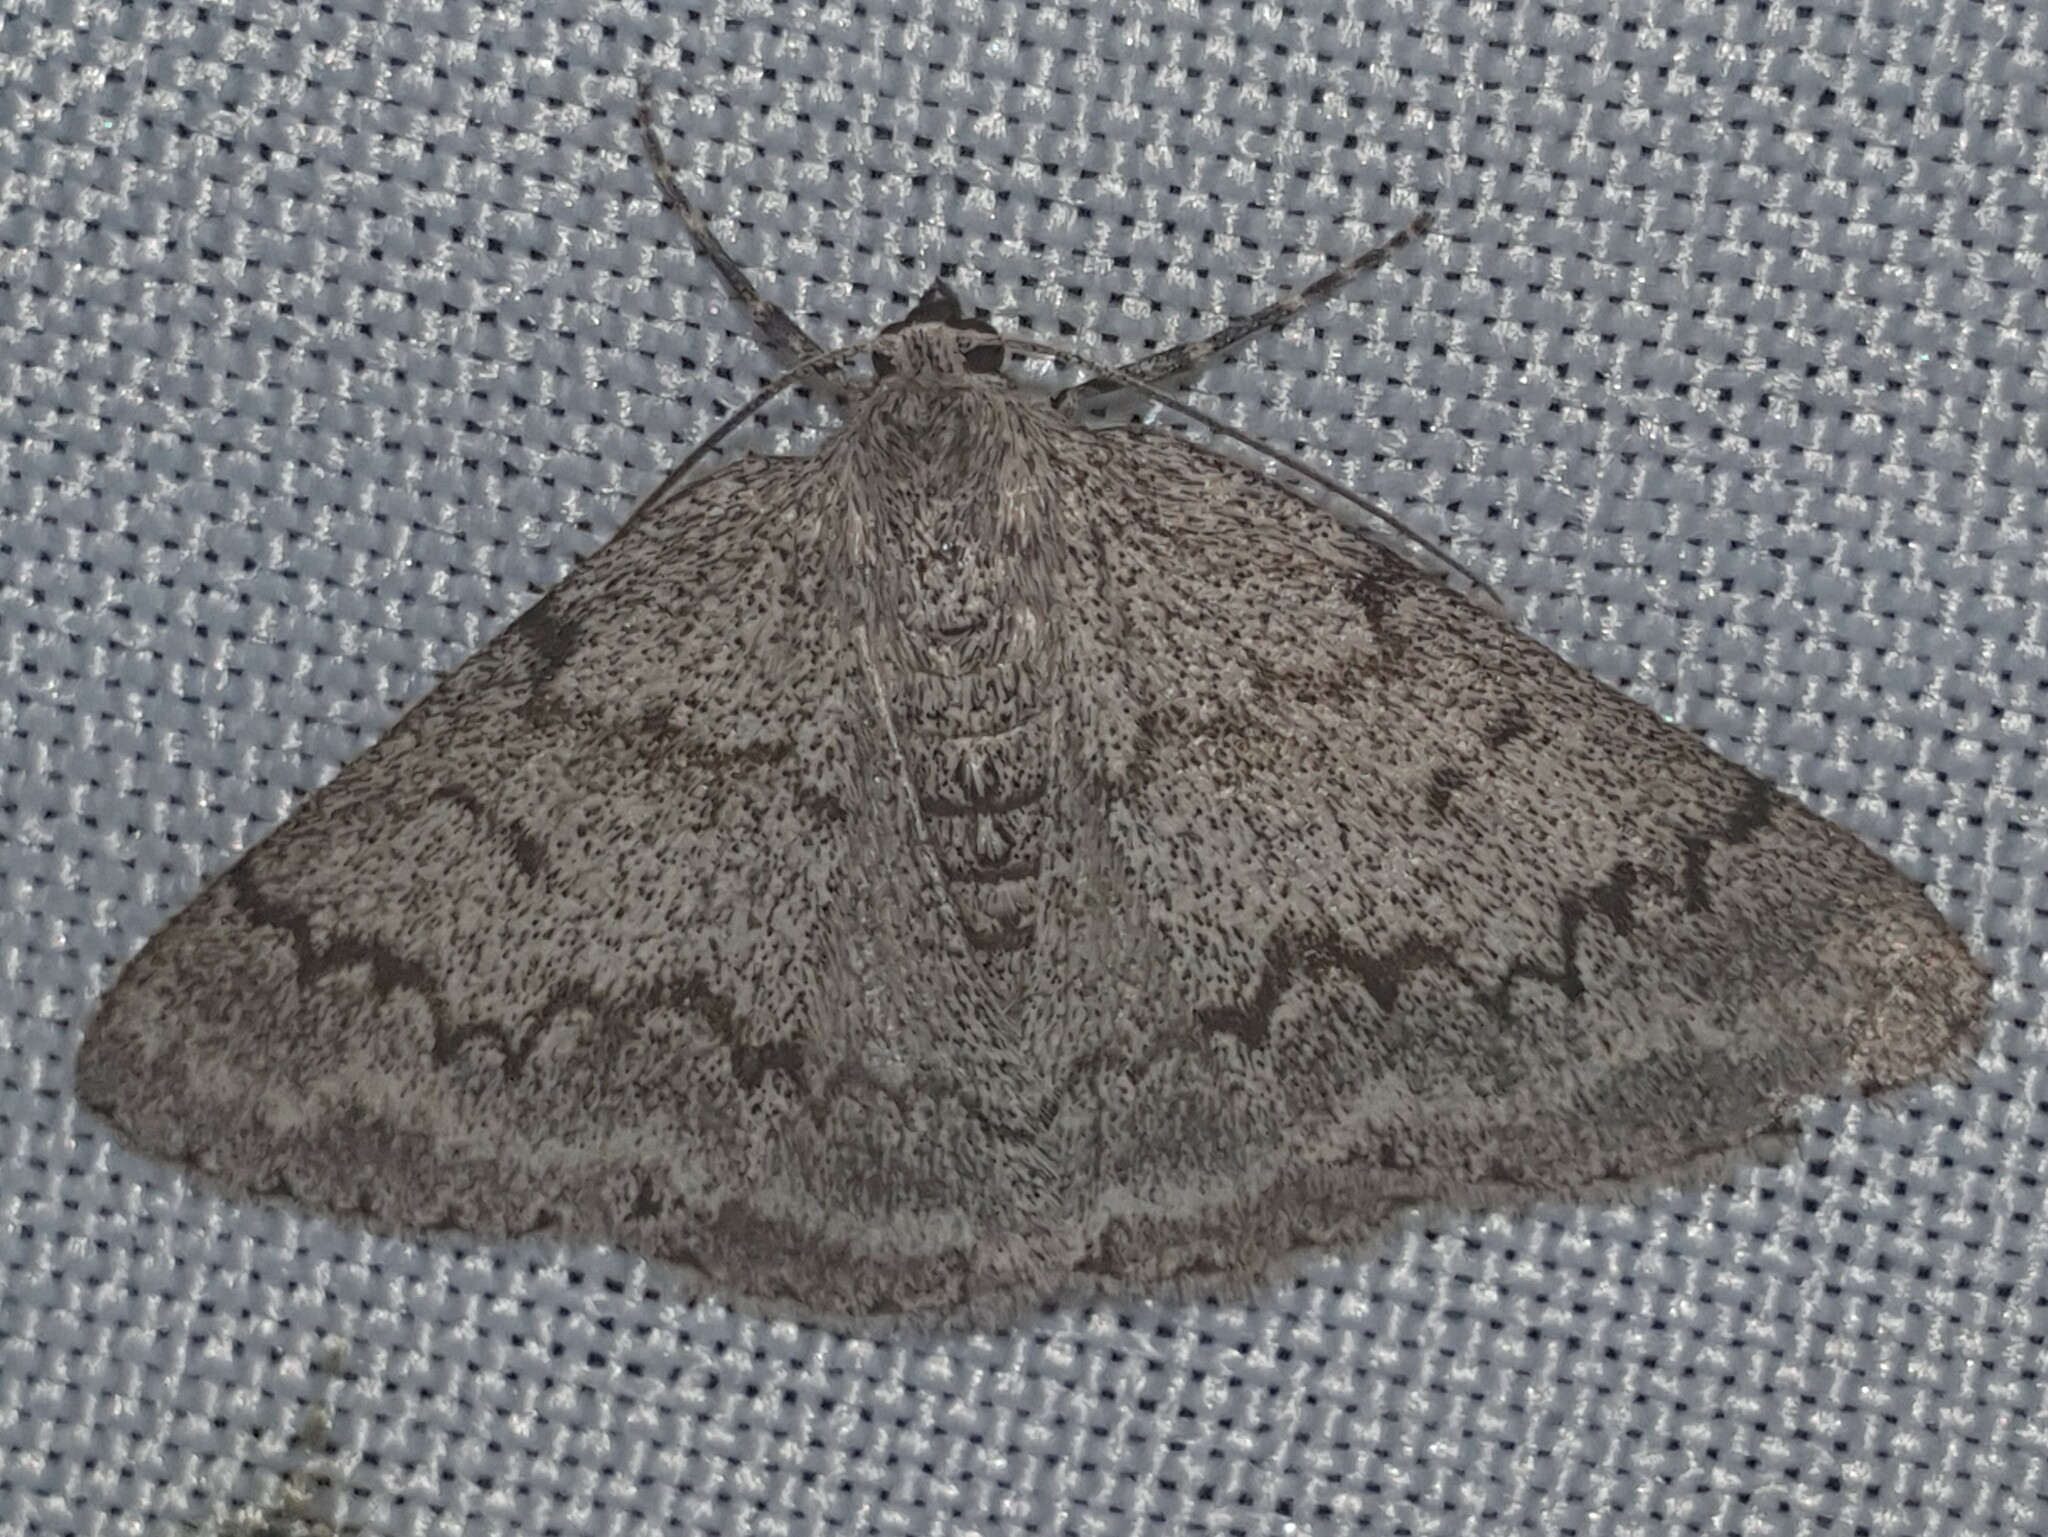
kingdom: Animalia
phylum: Arthropoda
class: Insecta
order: Lepidoptera
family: Geometridae
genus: Pseudoterpna
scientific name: Pseudoterpna coronillaria
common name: Jersey emerald
